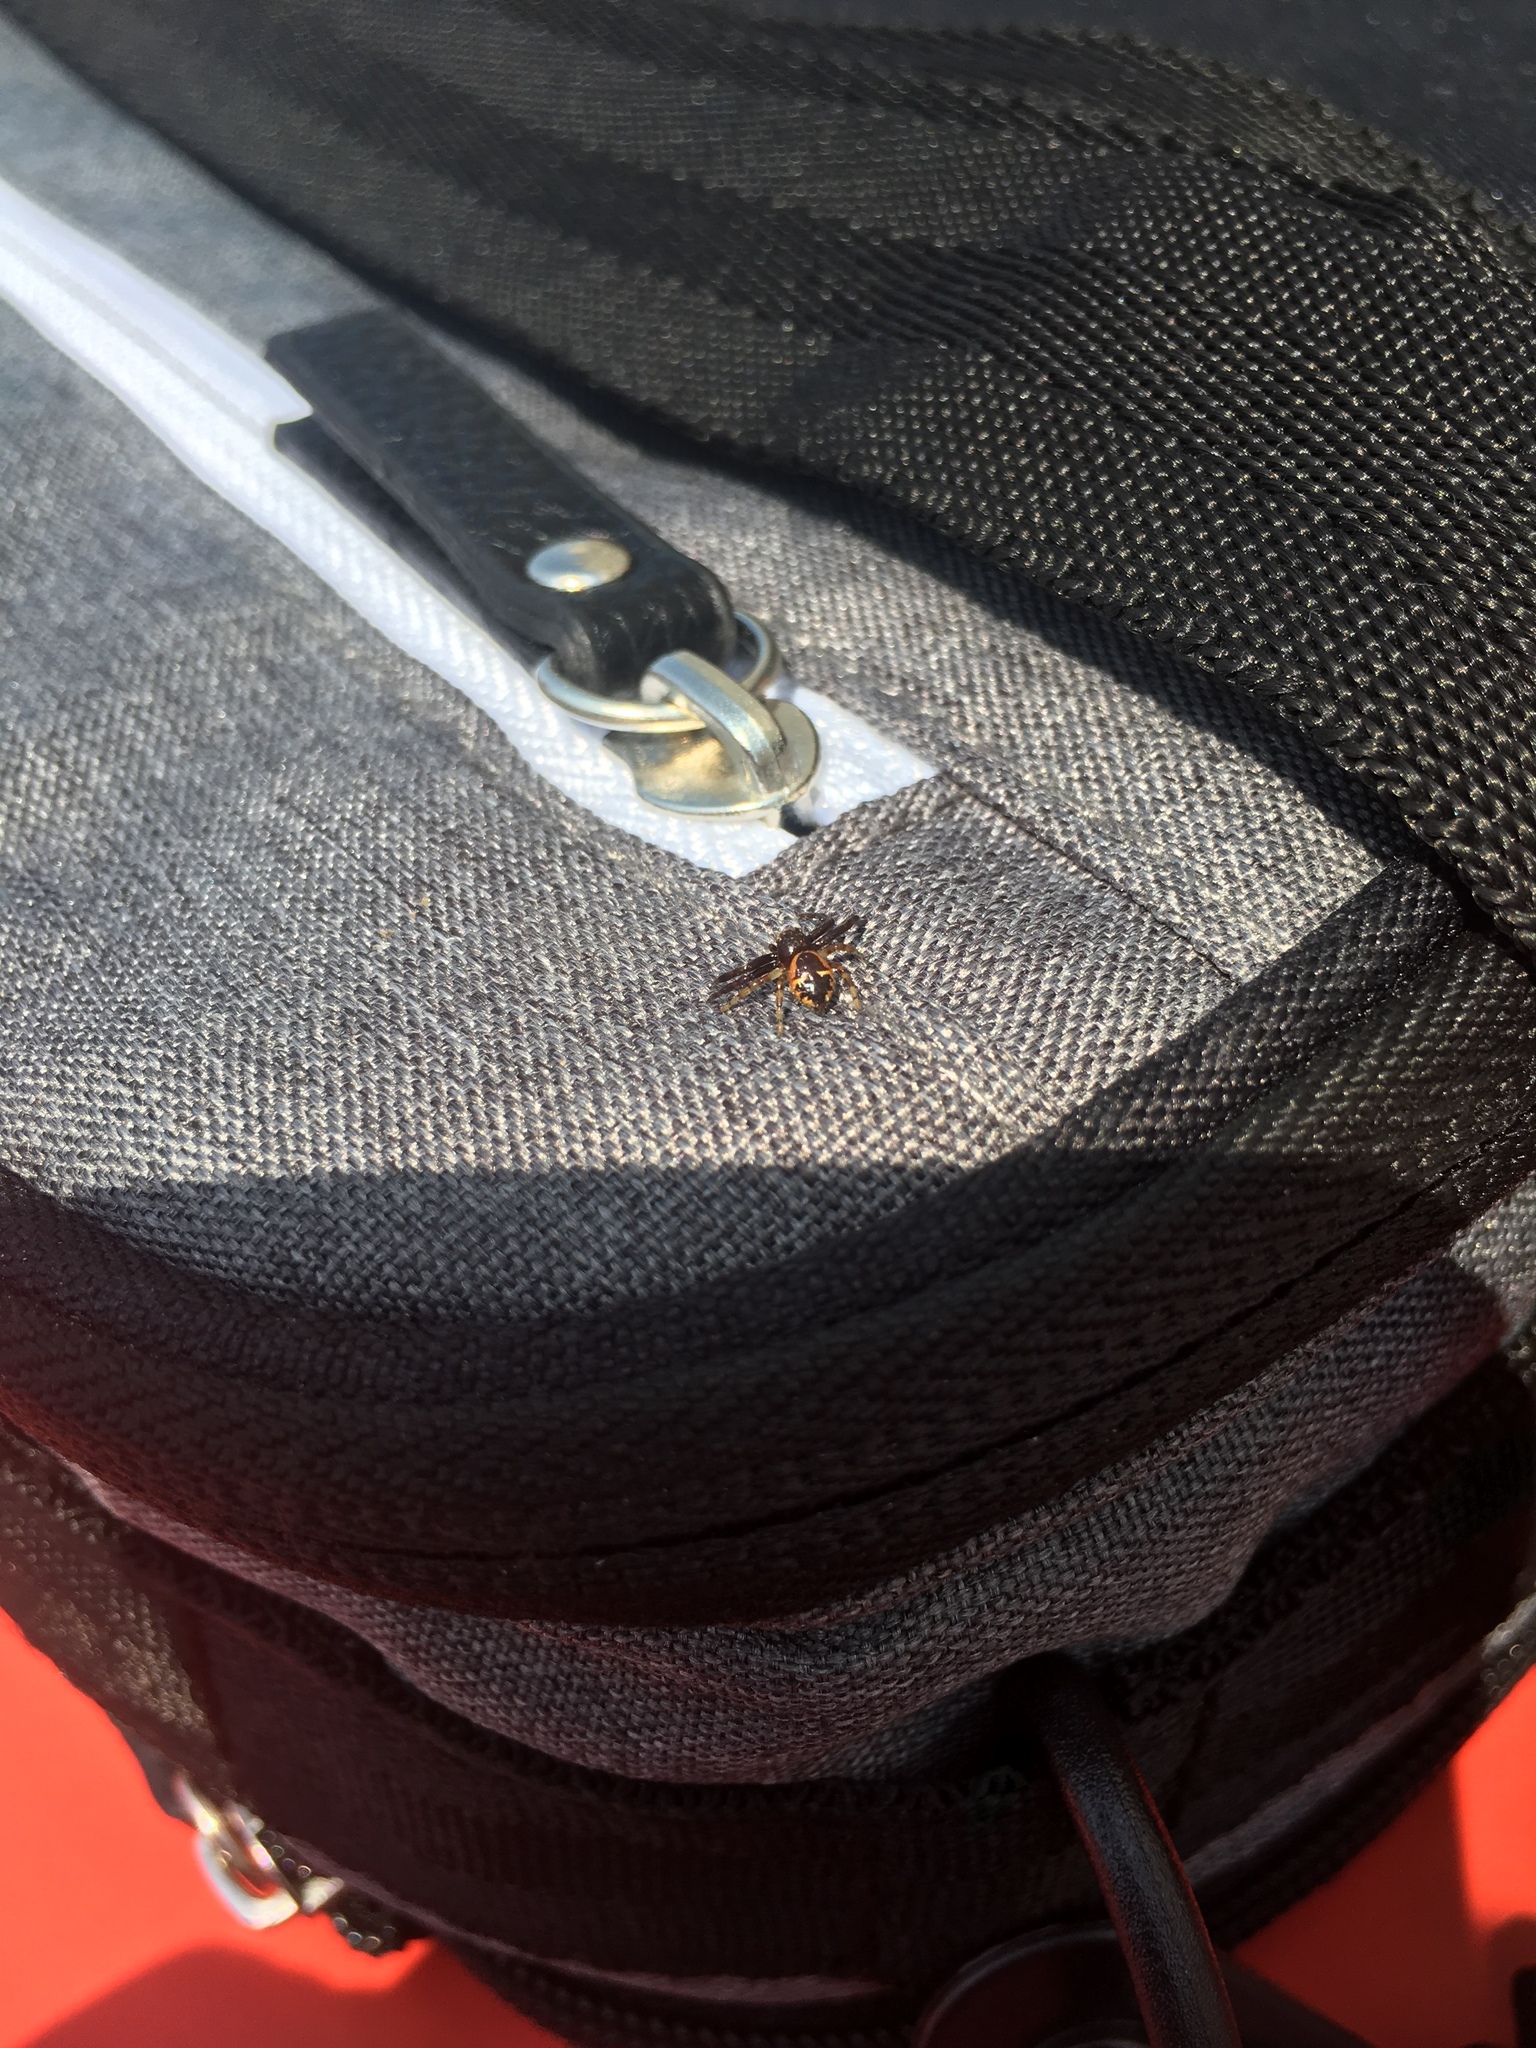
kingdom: Animalia
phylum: Arthropoda
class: Arachnida
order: Araneae
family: Thomisidae
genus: Synema
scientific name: Synema globosum
